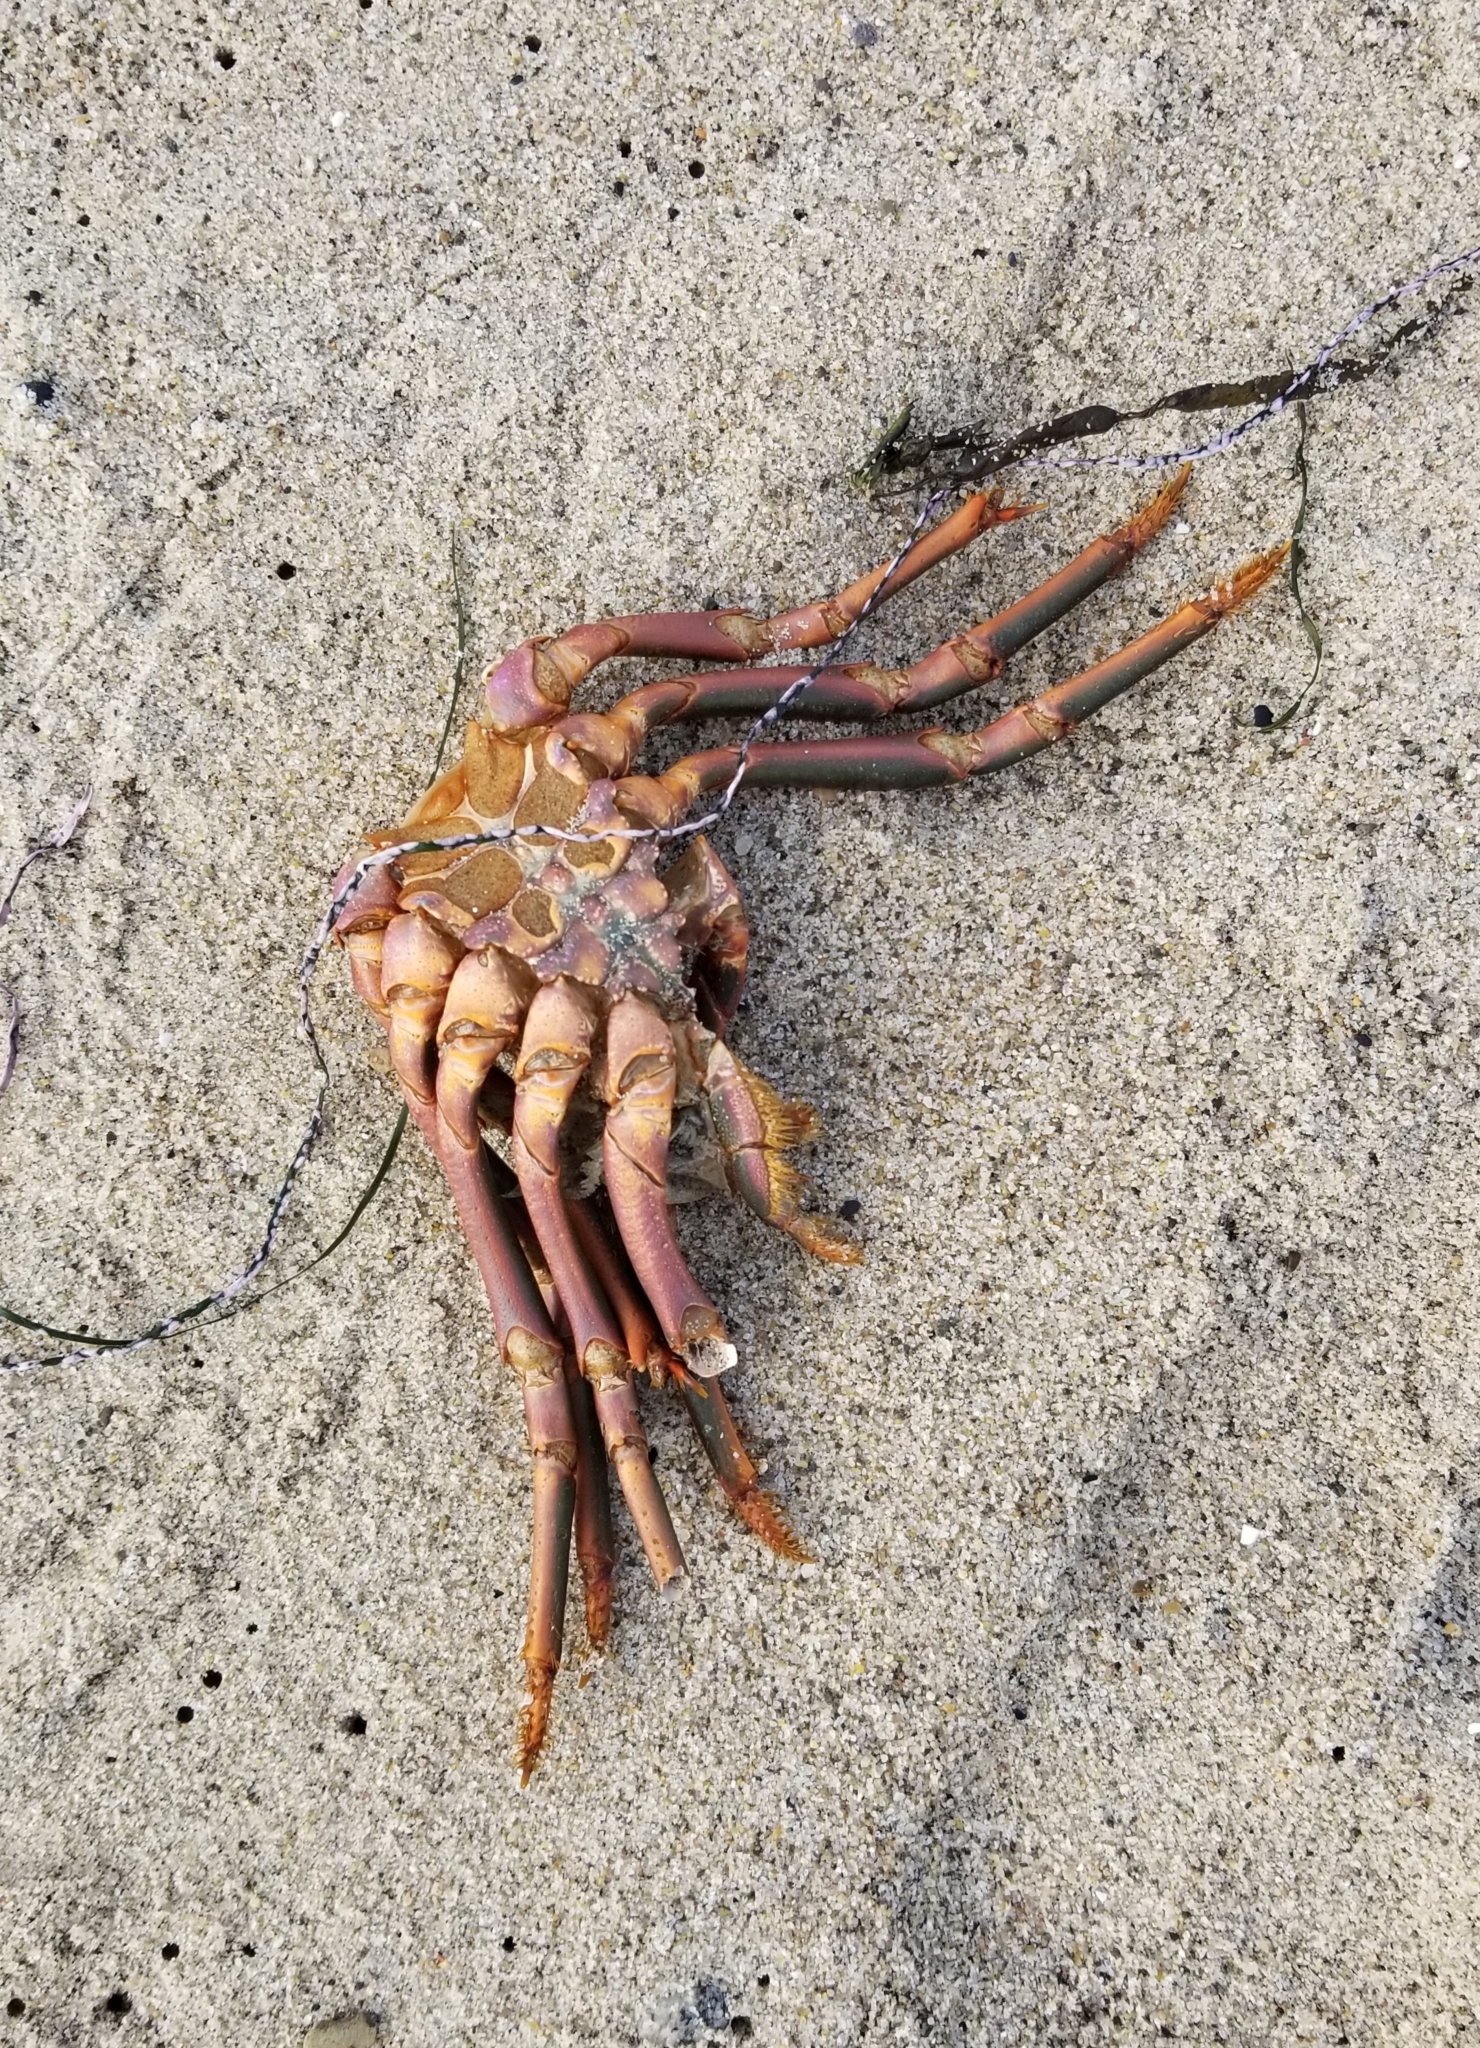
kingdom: Animalia
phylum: Arthropoda
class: Malacostraca
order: Decapoda
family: Palinuridae
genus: Panulirus
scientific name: Panulirus interruptus
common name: California spiny lobster
